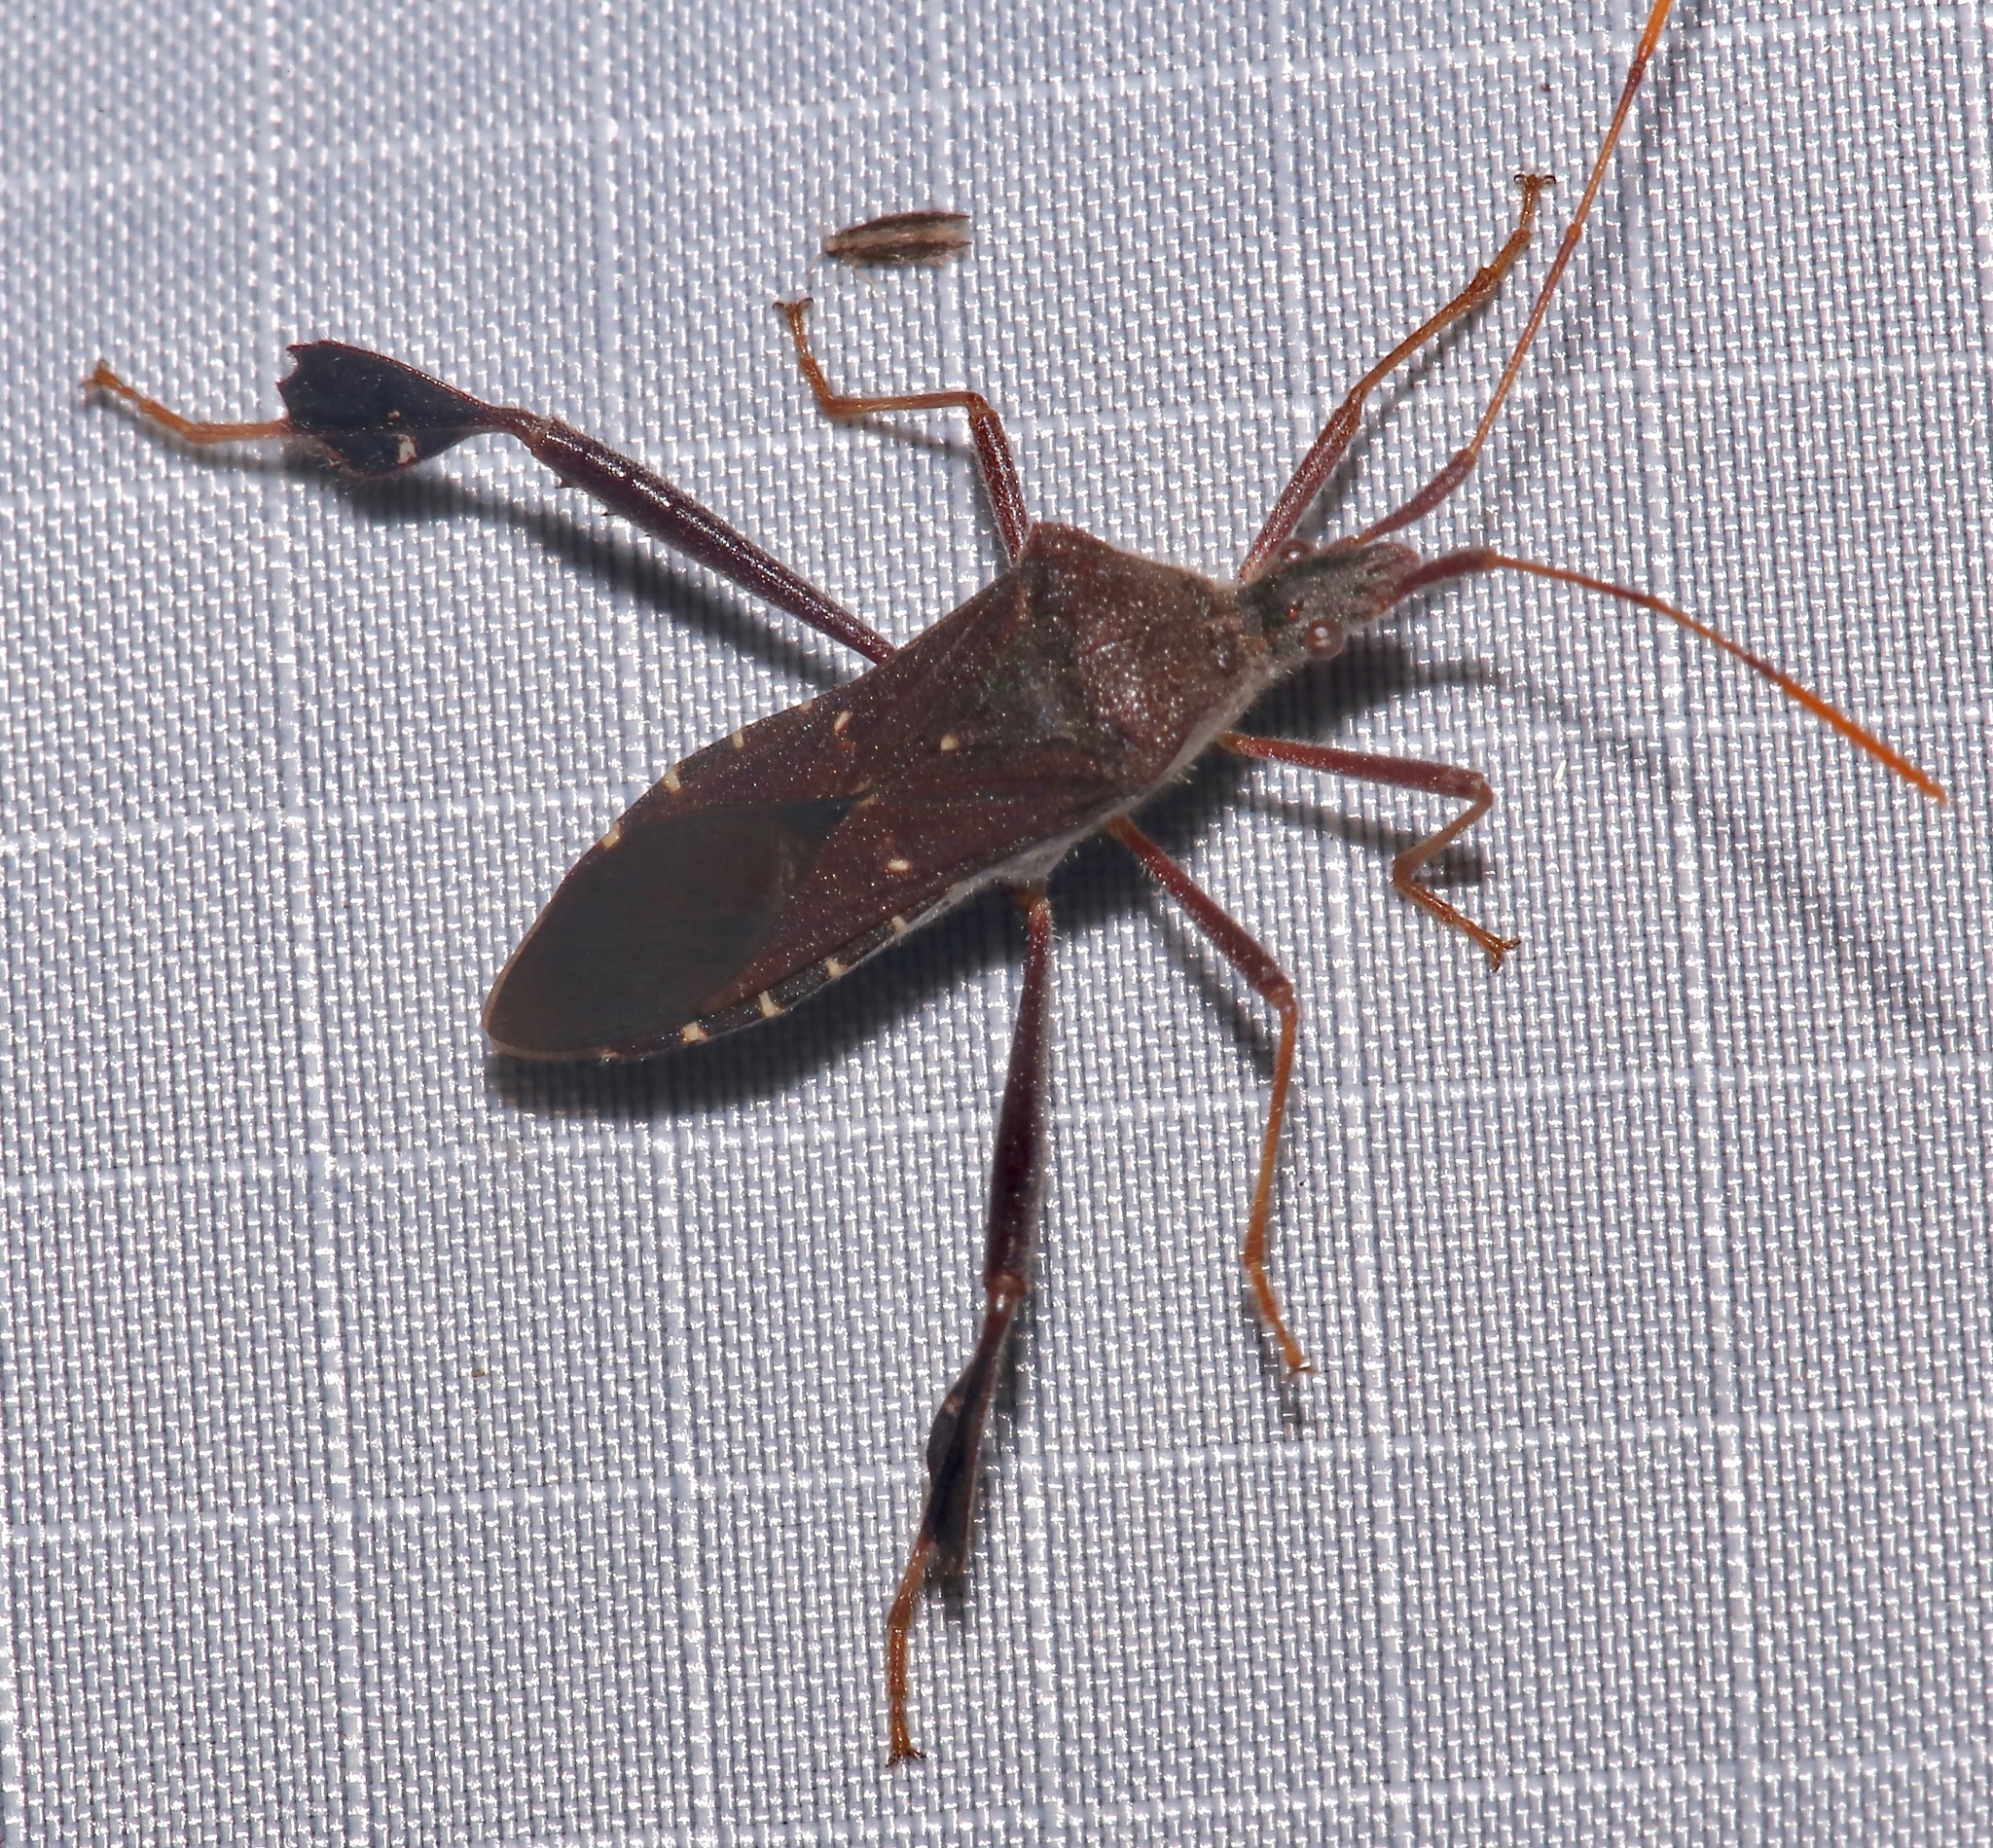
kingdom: Animalia
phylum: Arthropoda
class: Insecta
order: Hemiptera
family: Coreidae
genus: Leptoglossus
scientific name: Leptoglossus oppositus
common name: Northern leaf-footed bug
